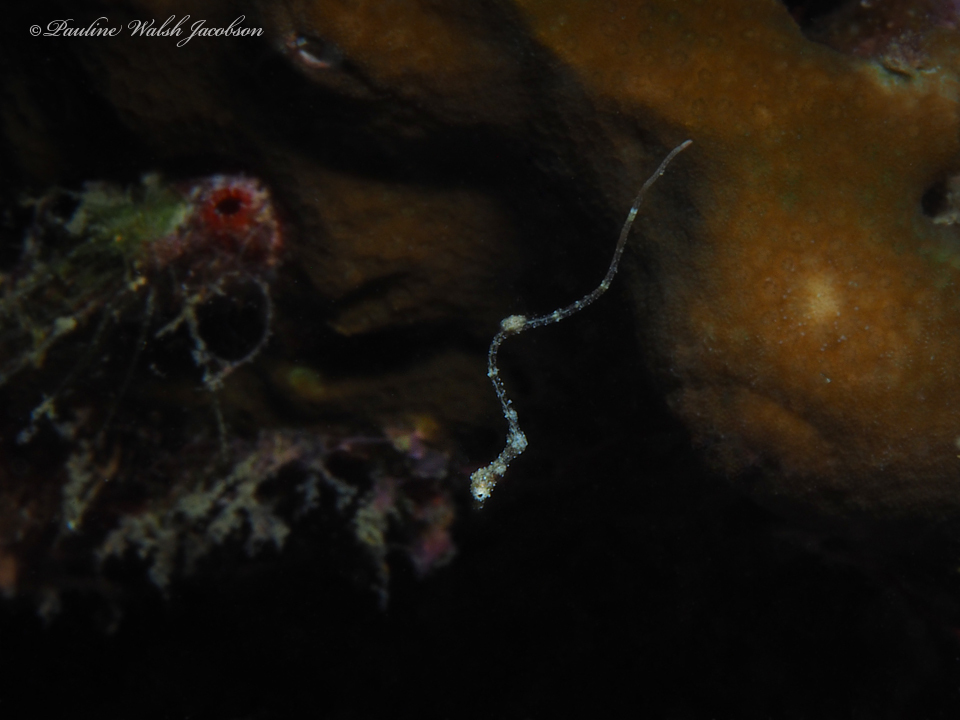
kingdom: Animalia
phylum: Chordata
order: Syngnathiformes
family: Syngnathidae
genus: Kyonemichthys
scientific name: Kyonemichthys rumengani
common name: Thread pipefish
